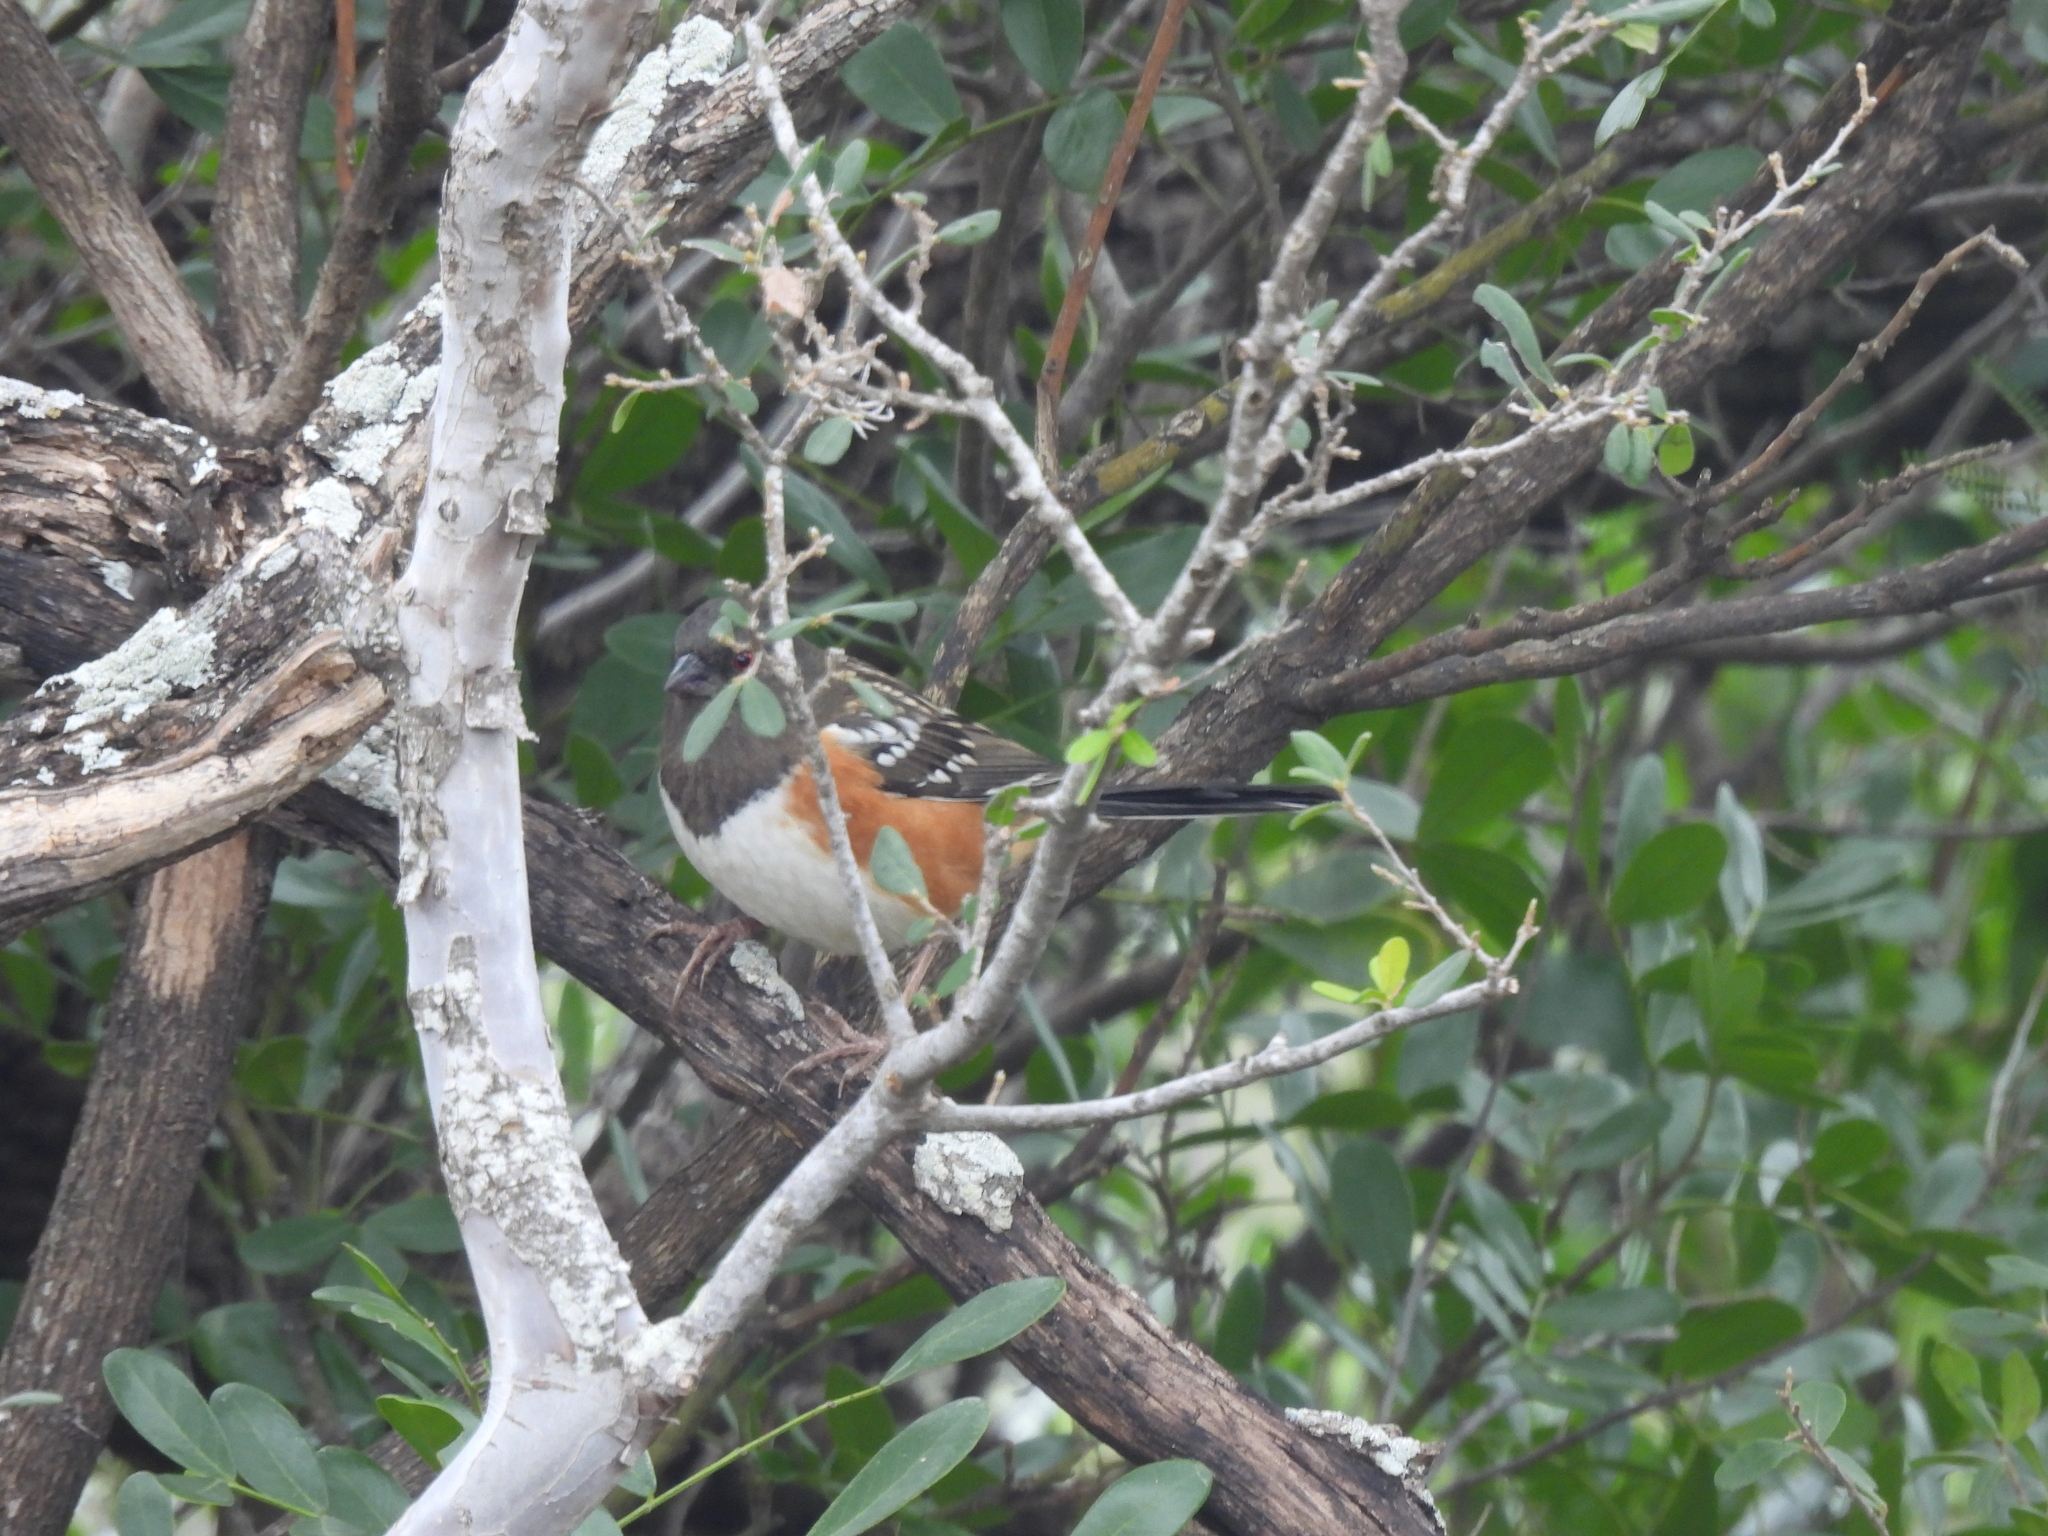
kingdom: Animalia
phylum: Chordata
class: Aves
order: Passeriformes
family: Passerellidae
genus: Pipilo
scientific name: Pipilo maculatus
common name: Spotted towhee
